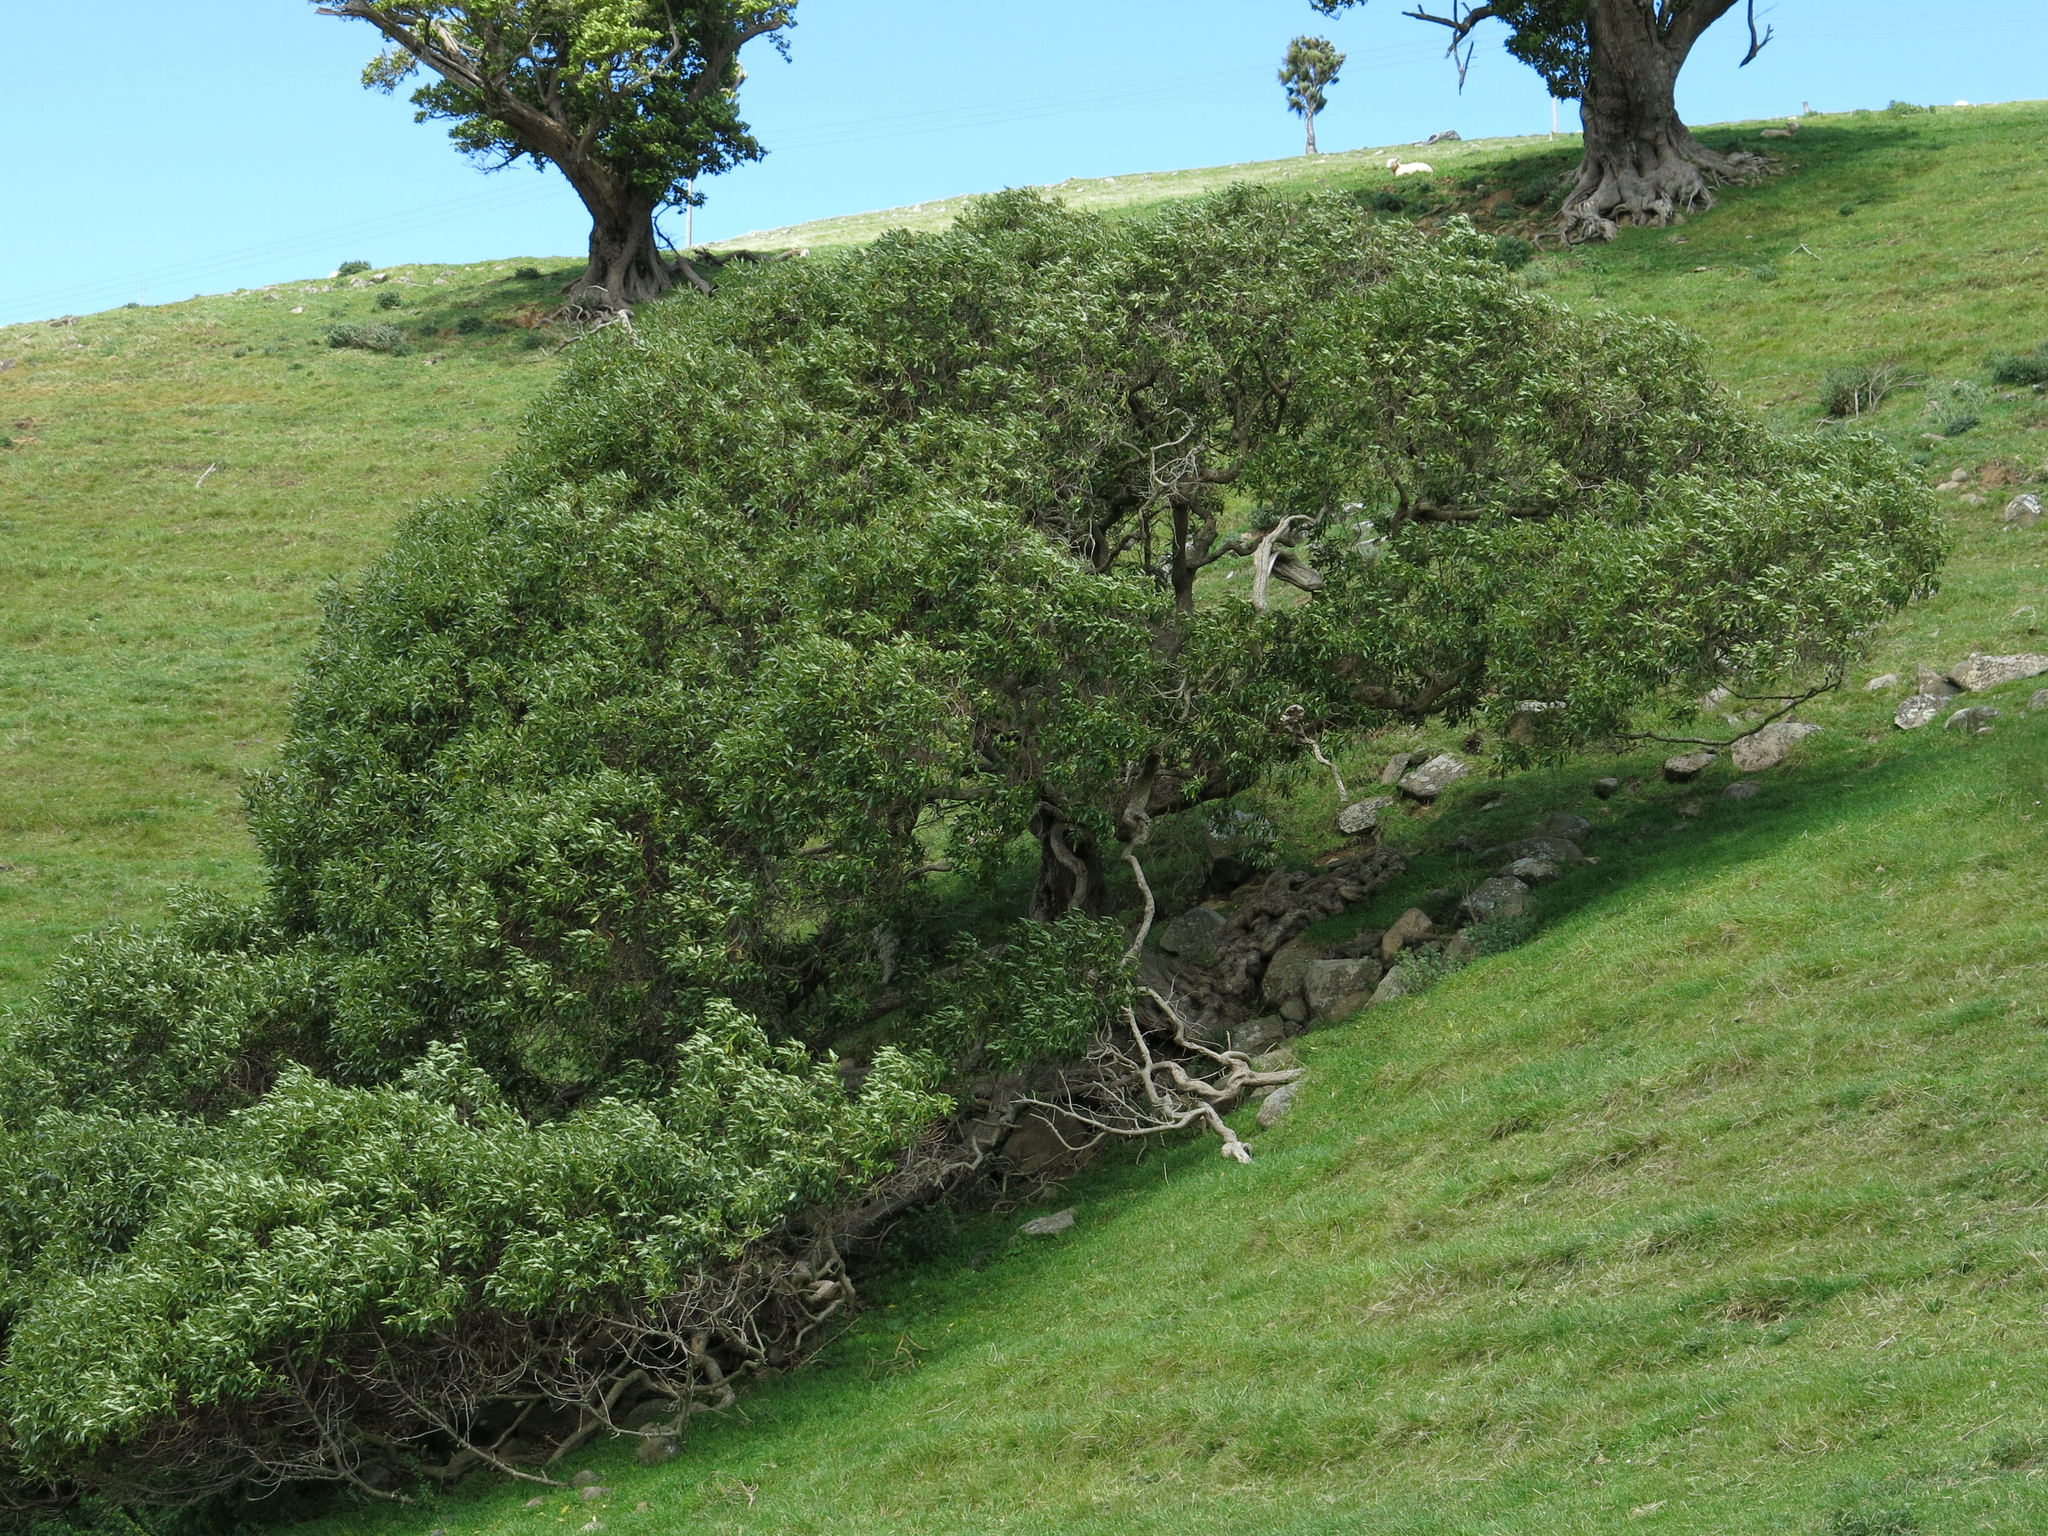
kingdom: Plantae
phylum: Tracheophyta
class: Magnoliopsida
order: Lamiales
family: Scrophulariaceae
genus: Myoporum
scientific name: Myoporum laetum
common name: Ngaio tree
